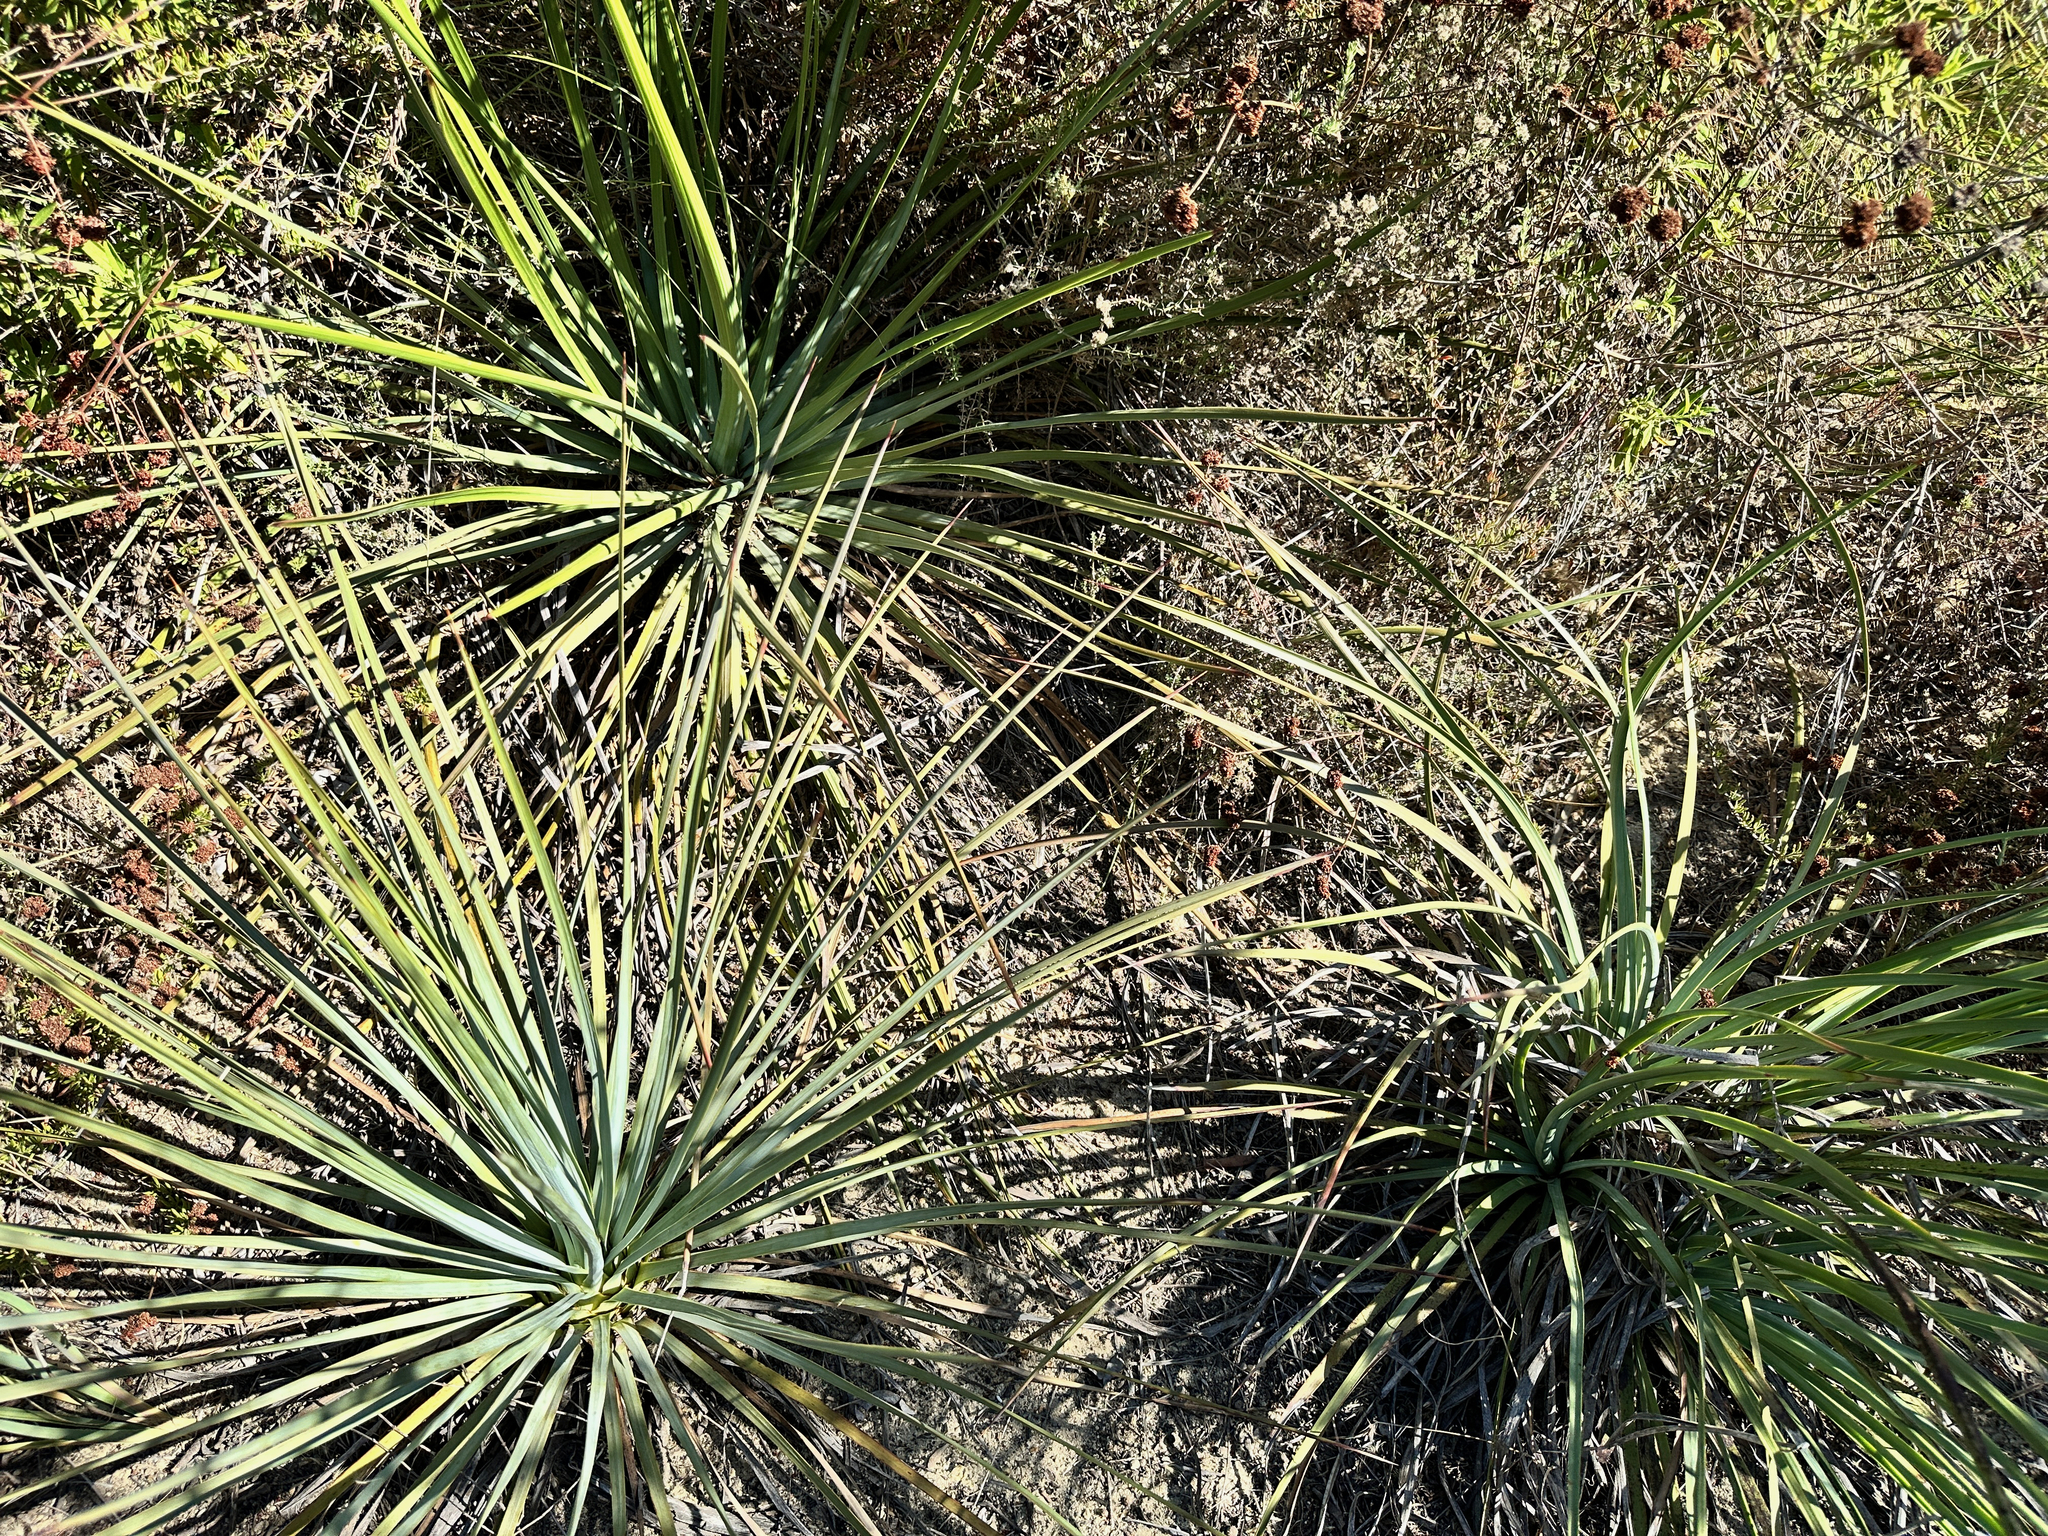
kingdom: Plantae
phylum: Tracheophyta
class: Liliopsida
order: Asparagales
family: Asparagaceae
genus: Hesperoyucca
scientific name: Hesperoyucca whipplei
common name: Our lord's-candle
